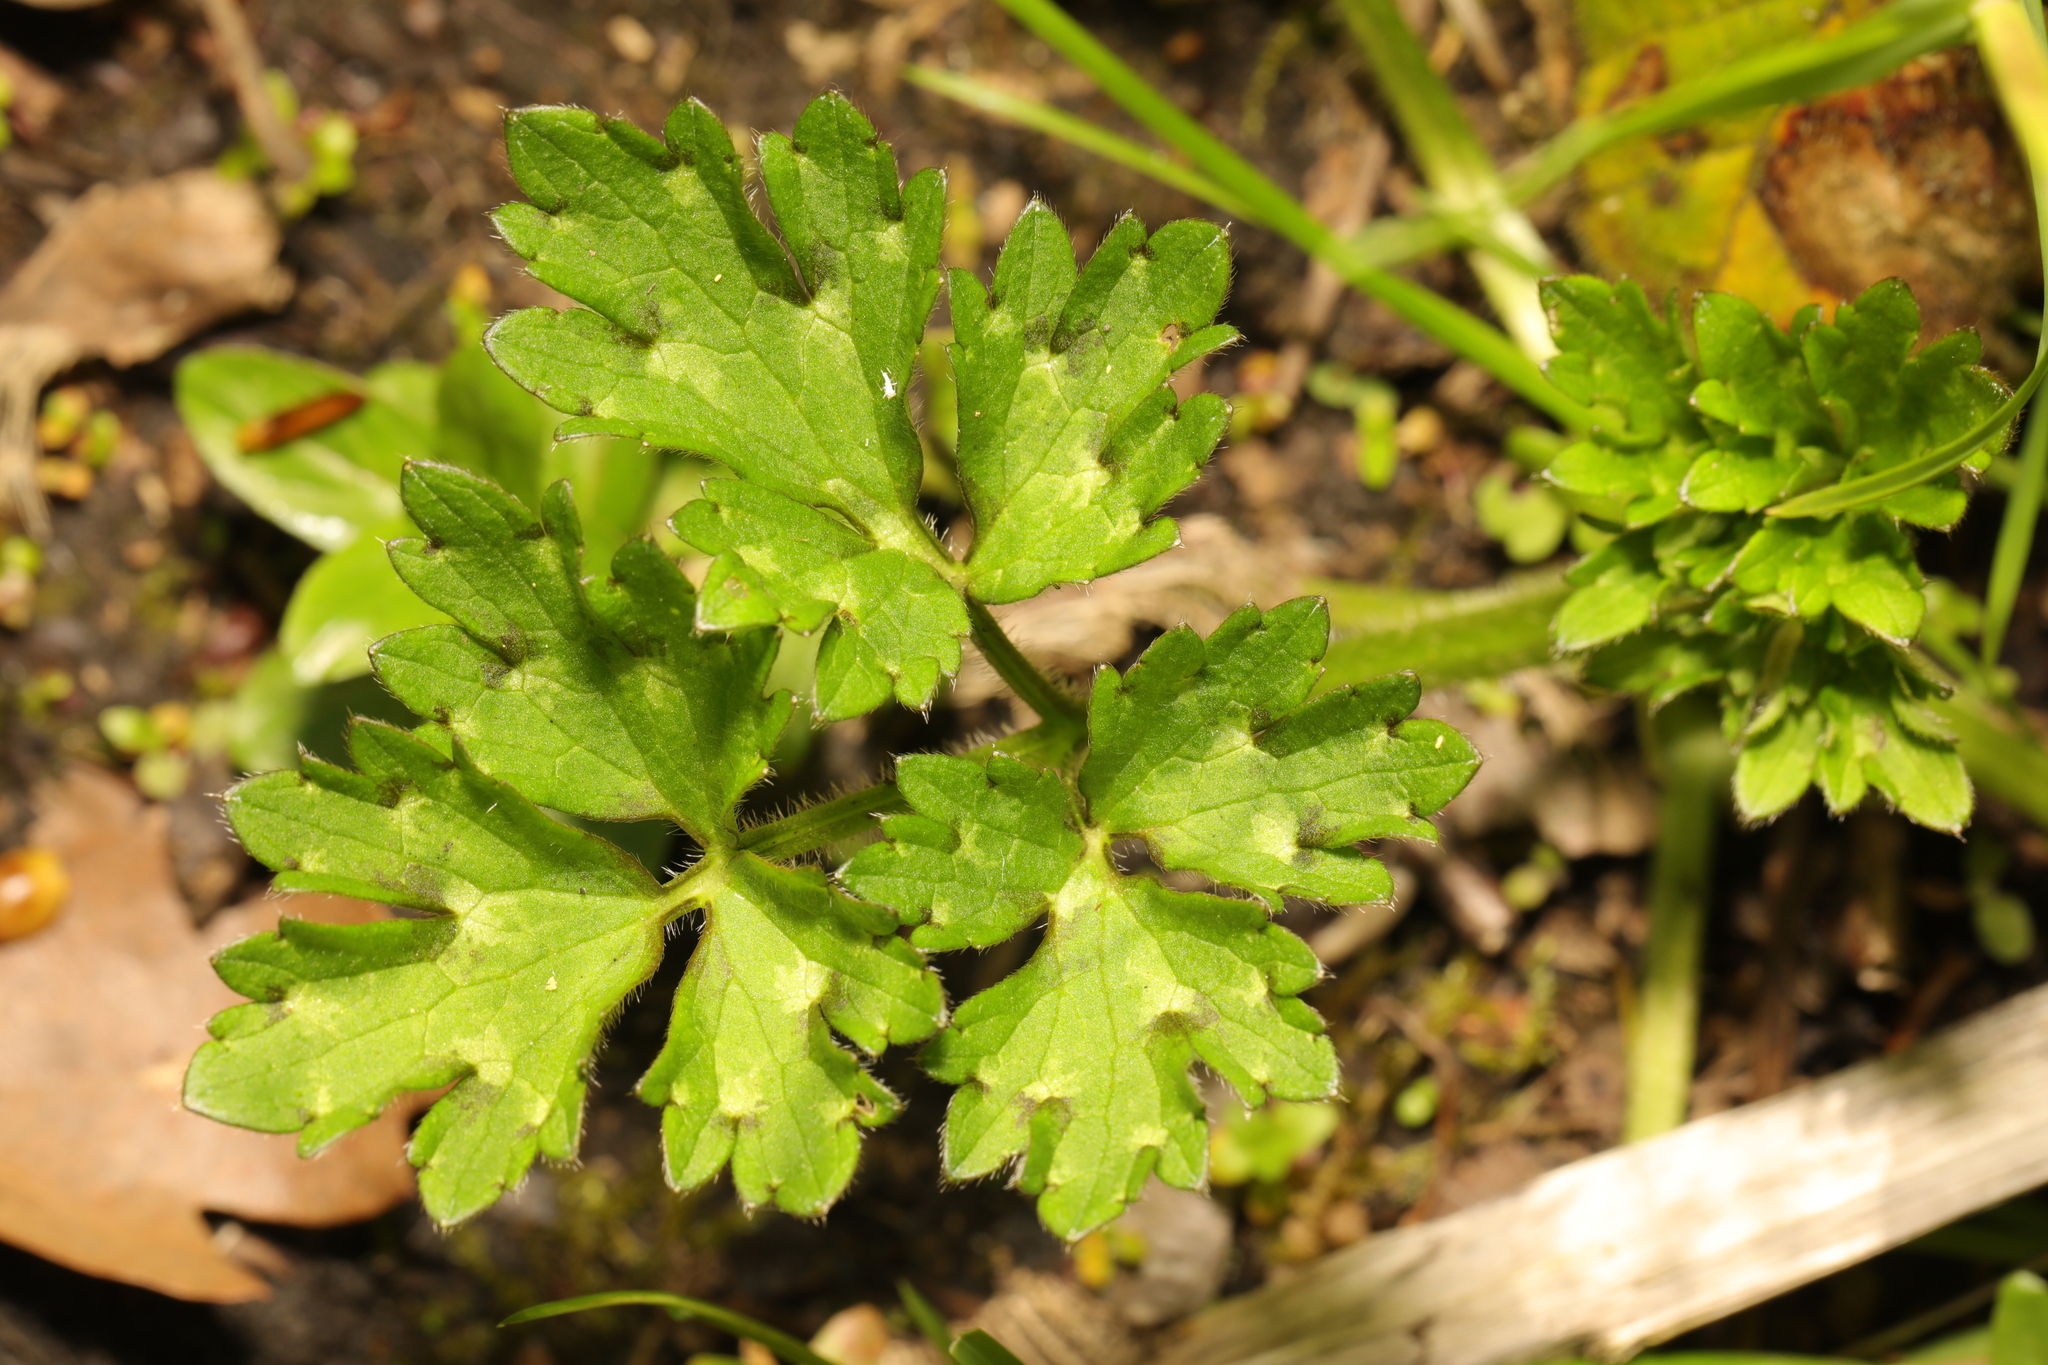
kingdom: Plantae
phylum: Tracheophyta
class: Magnoliopsida
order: Ranunculales
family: Ranunculaceae
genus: Ranunculus
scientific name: Ranunculus repens
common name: Creeping buttercup
